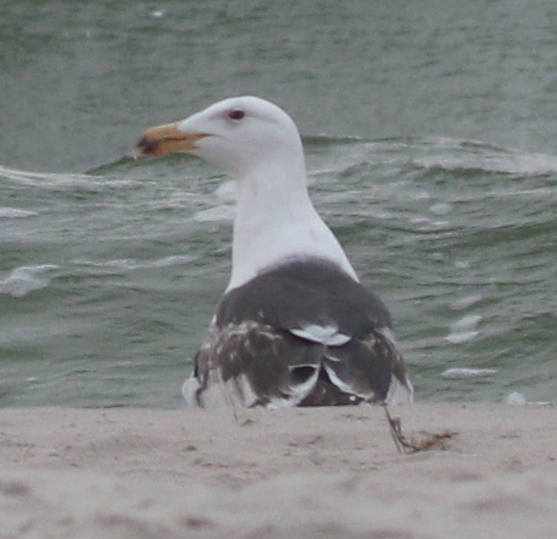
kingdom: Animalia
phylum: Chordata
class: Aves
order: Charadriiformes
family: Laridae
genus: Larus
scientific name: Larus marinus
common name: Great black-backed gull
